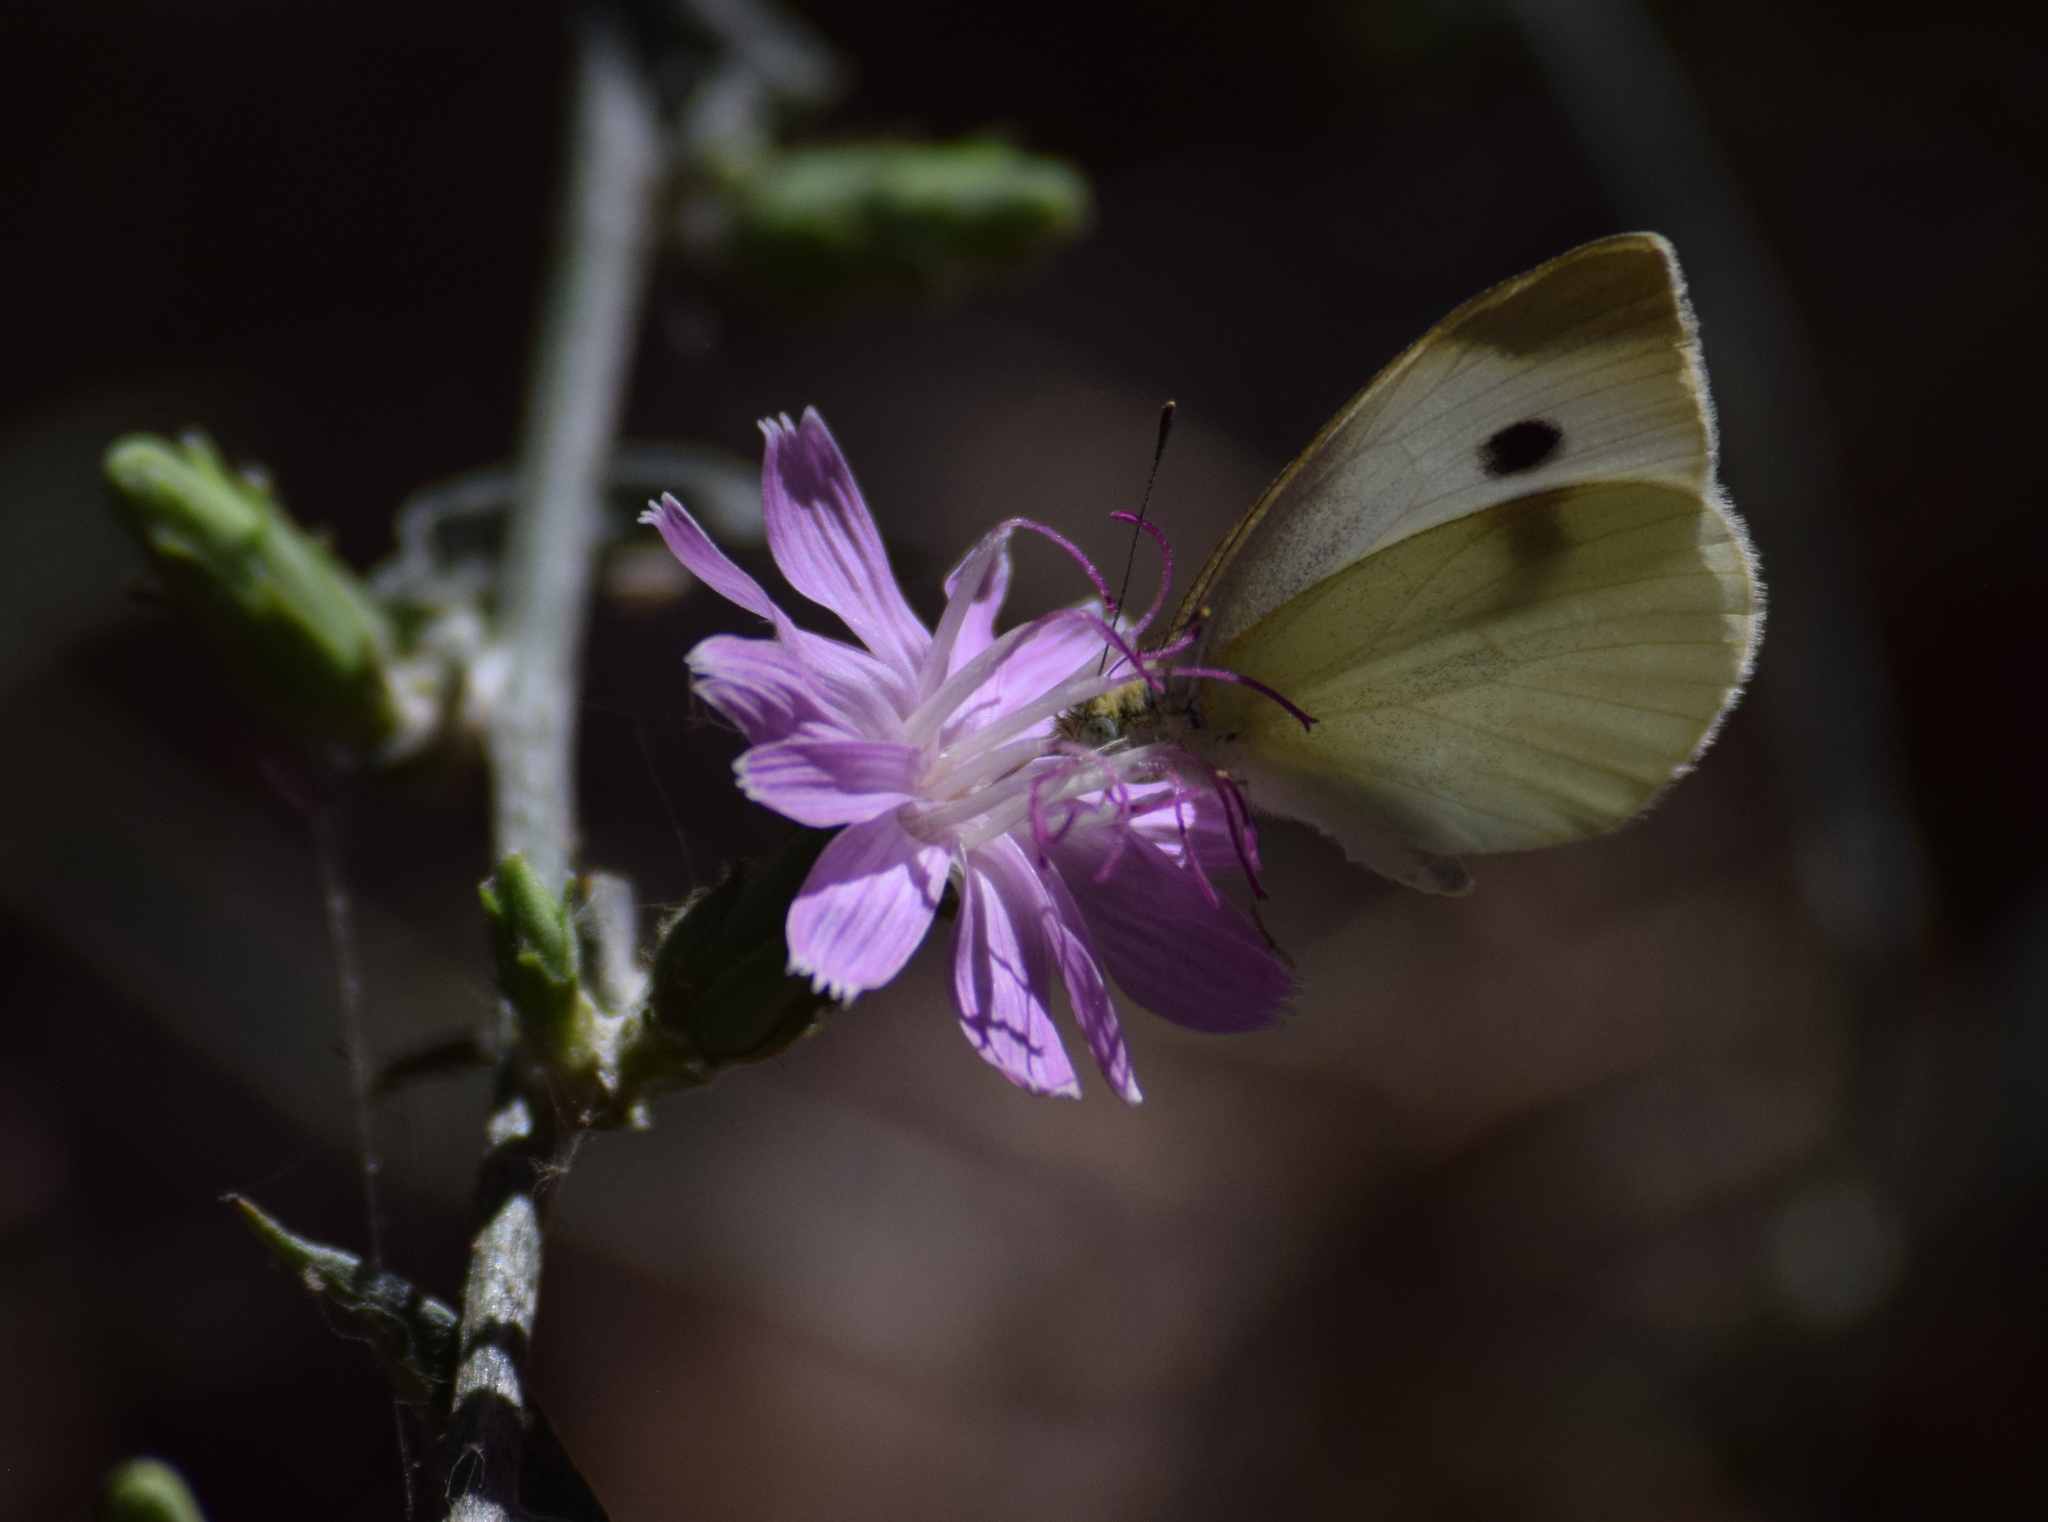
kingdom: Animalia
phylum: Arthropoda
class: Insecta
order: Lepidoptera
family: Pieridae
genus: Pieris
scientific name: Pieris rapae
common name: Small white
